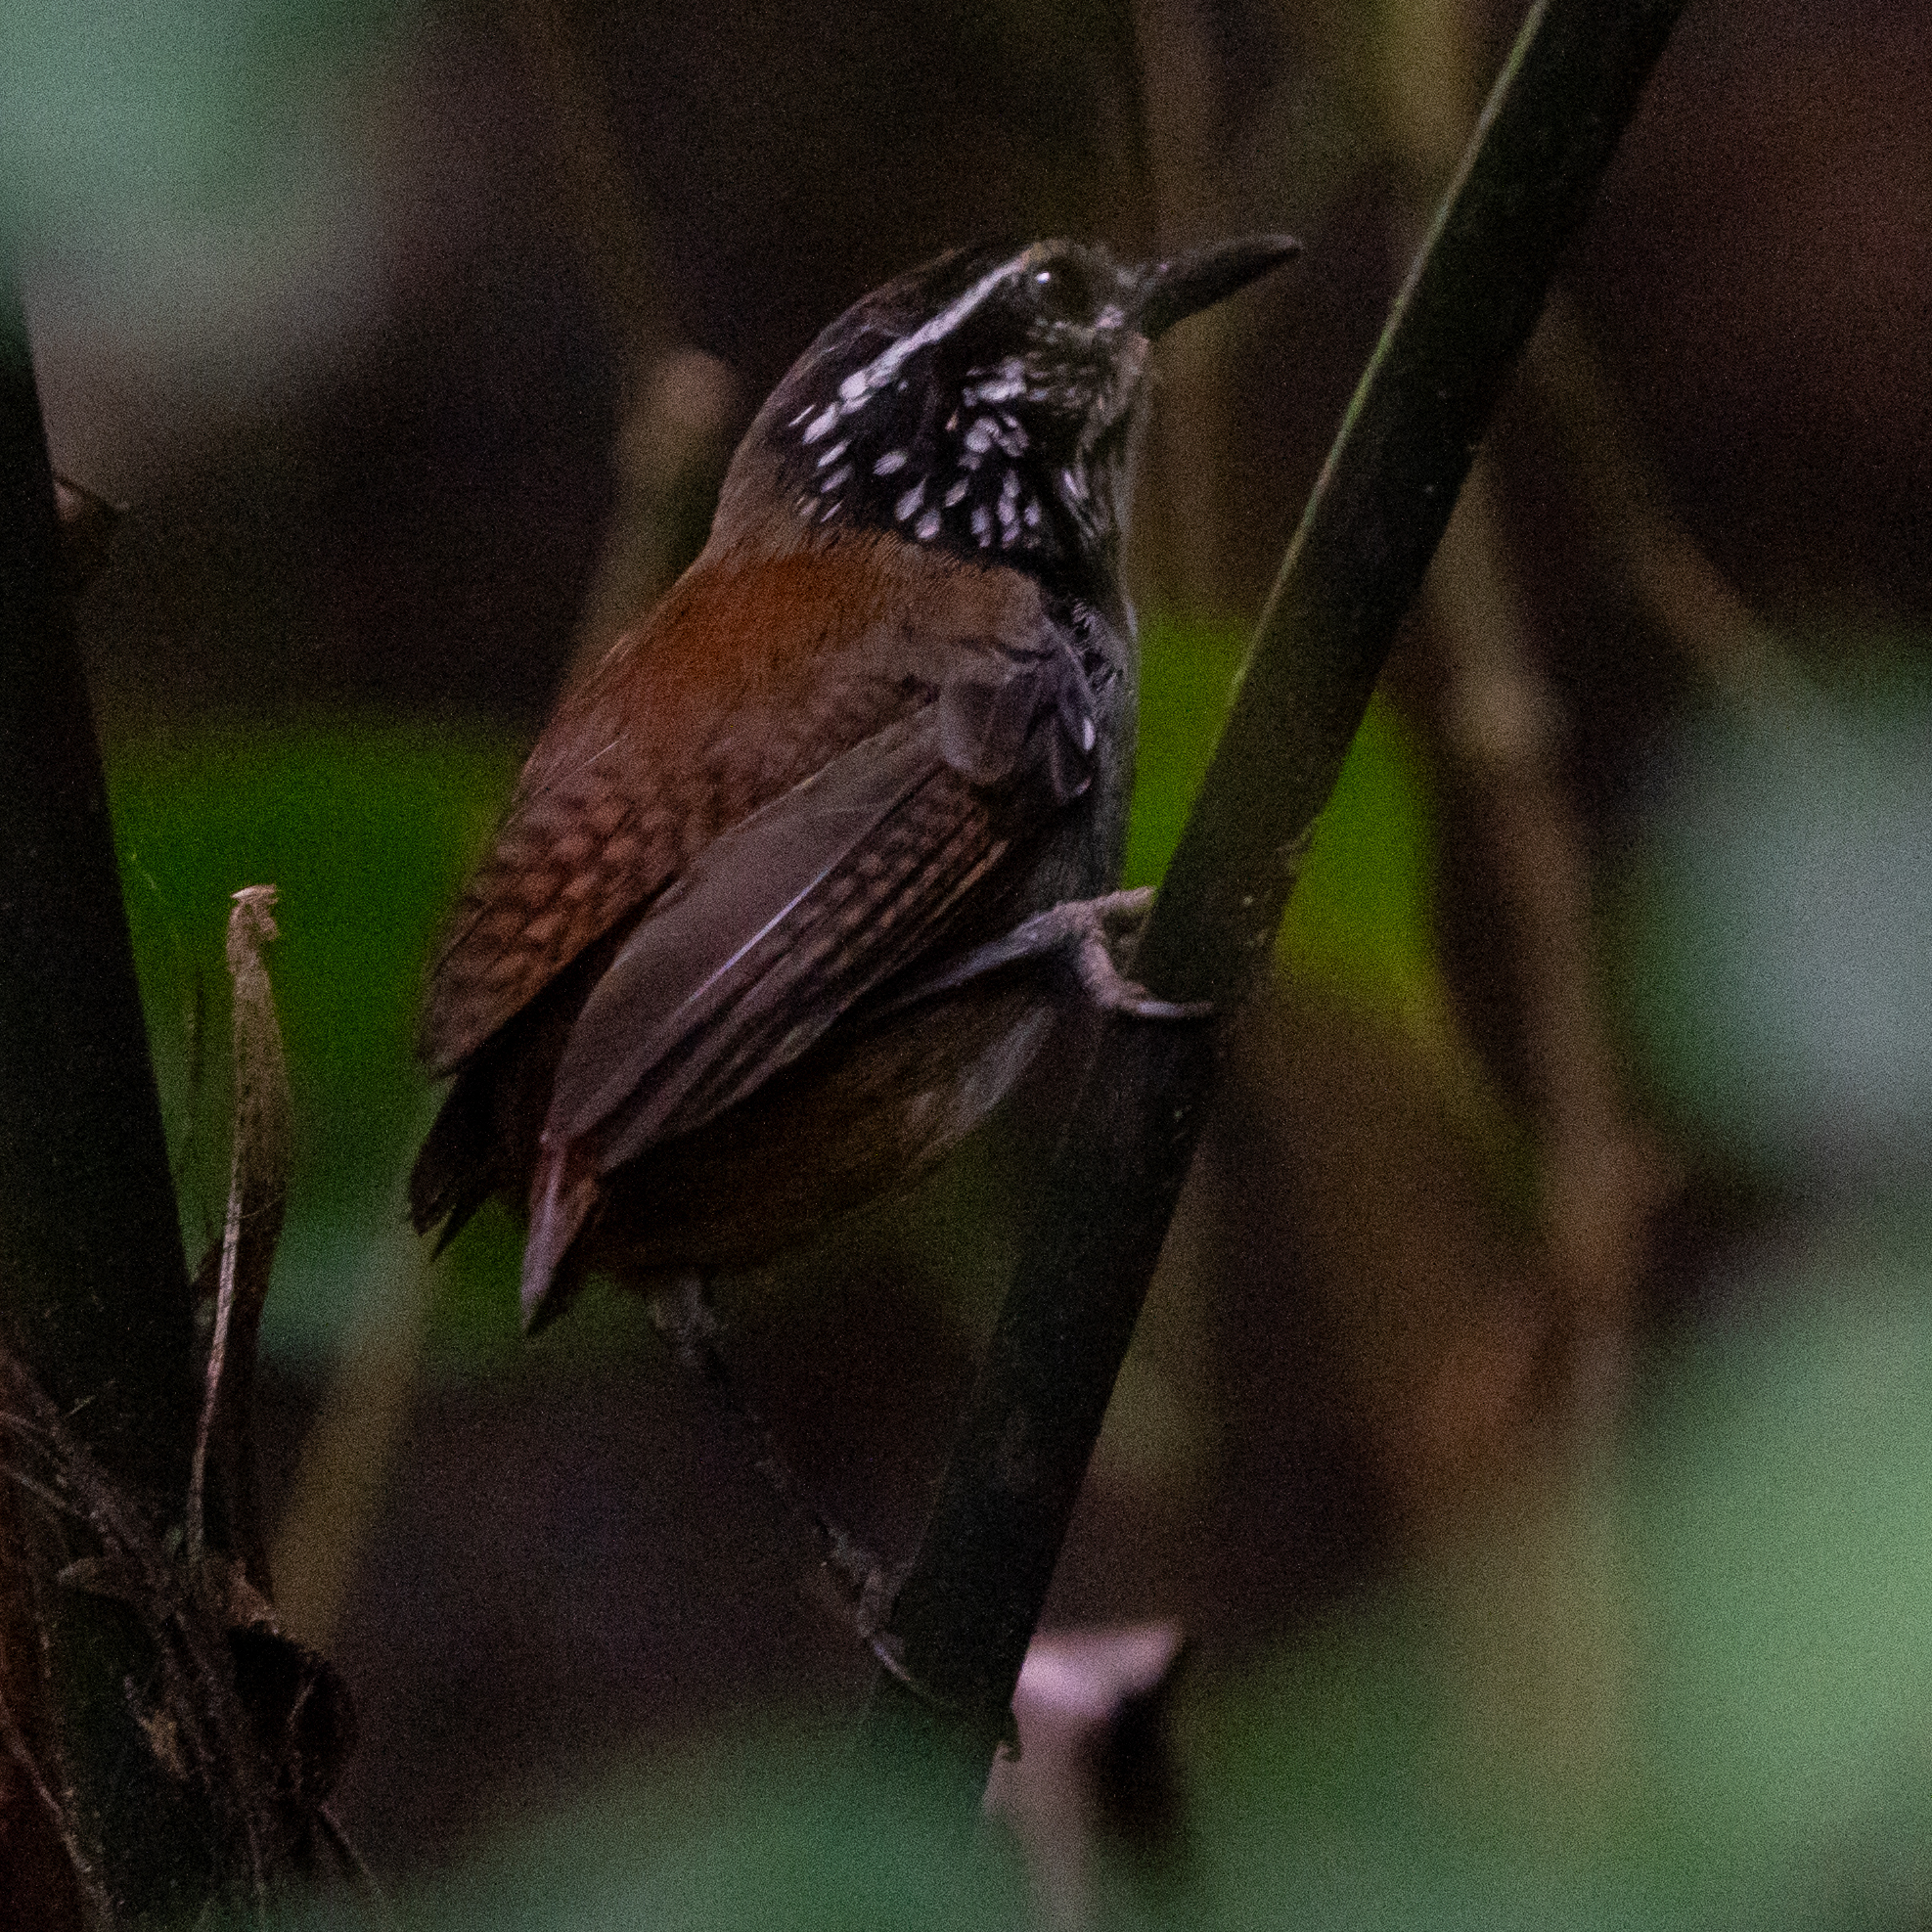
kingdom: Animalia
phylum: Chordata
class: Aves
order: Passeriformes
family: Troglodytidae
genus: Henicorhina
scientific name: Henicorhina leucosticta
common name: White-breasted wood-wren
